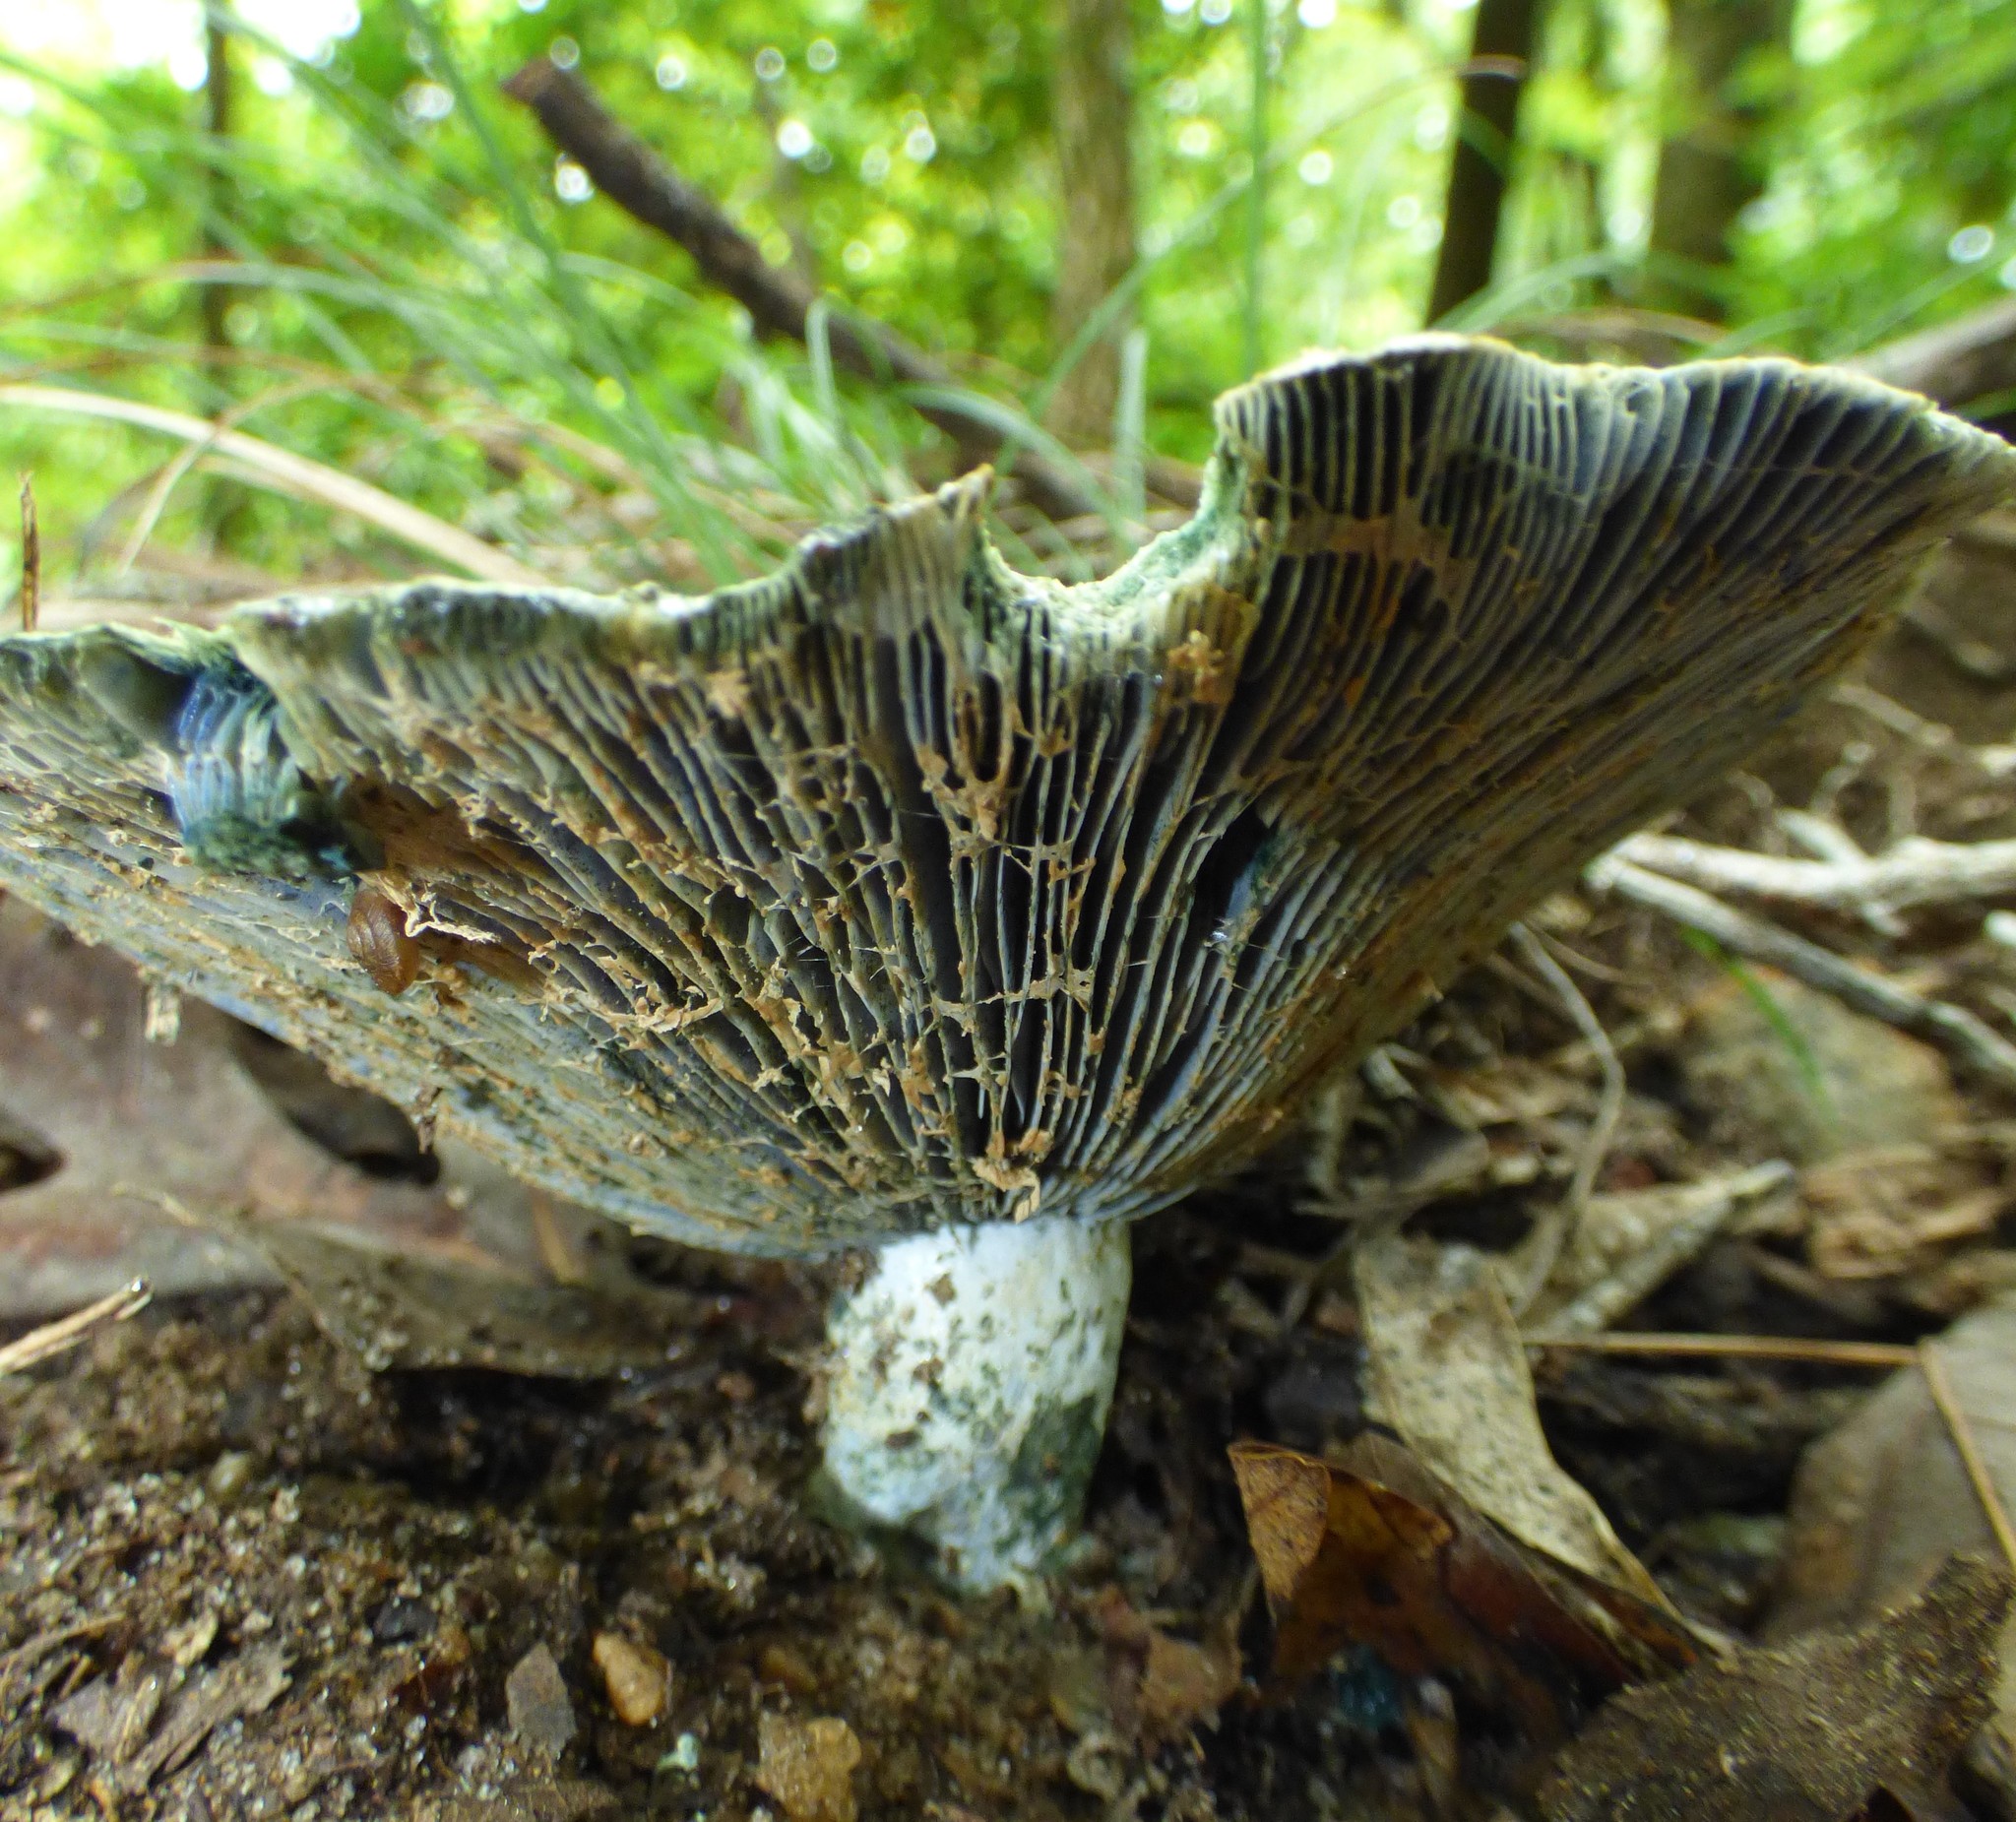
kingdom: Fungi
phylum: Basidiomycota
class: Agaricomycetes
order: Russulales
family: Russulaceae
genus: Lactarius
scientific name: Lactarius indigo
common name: Indigo milk cap
